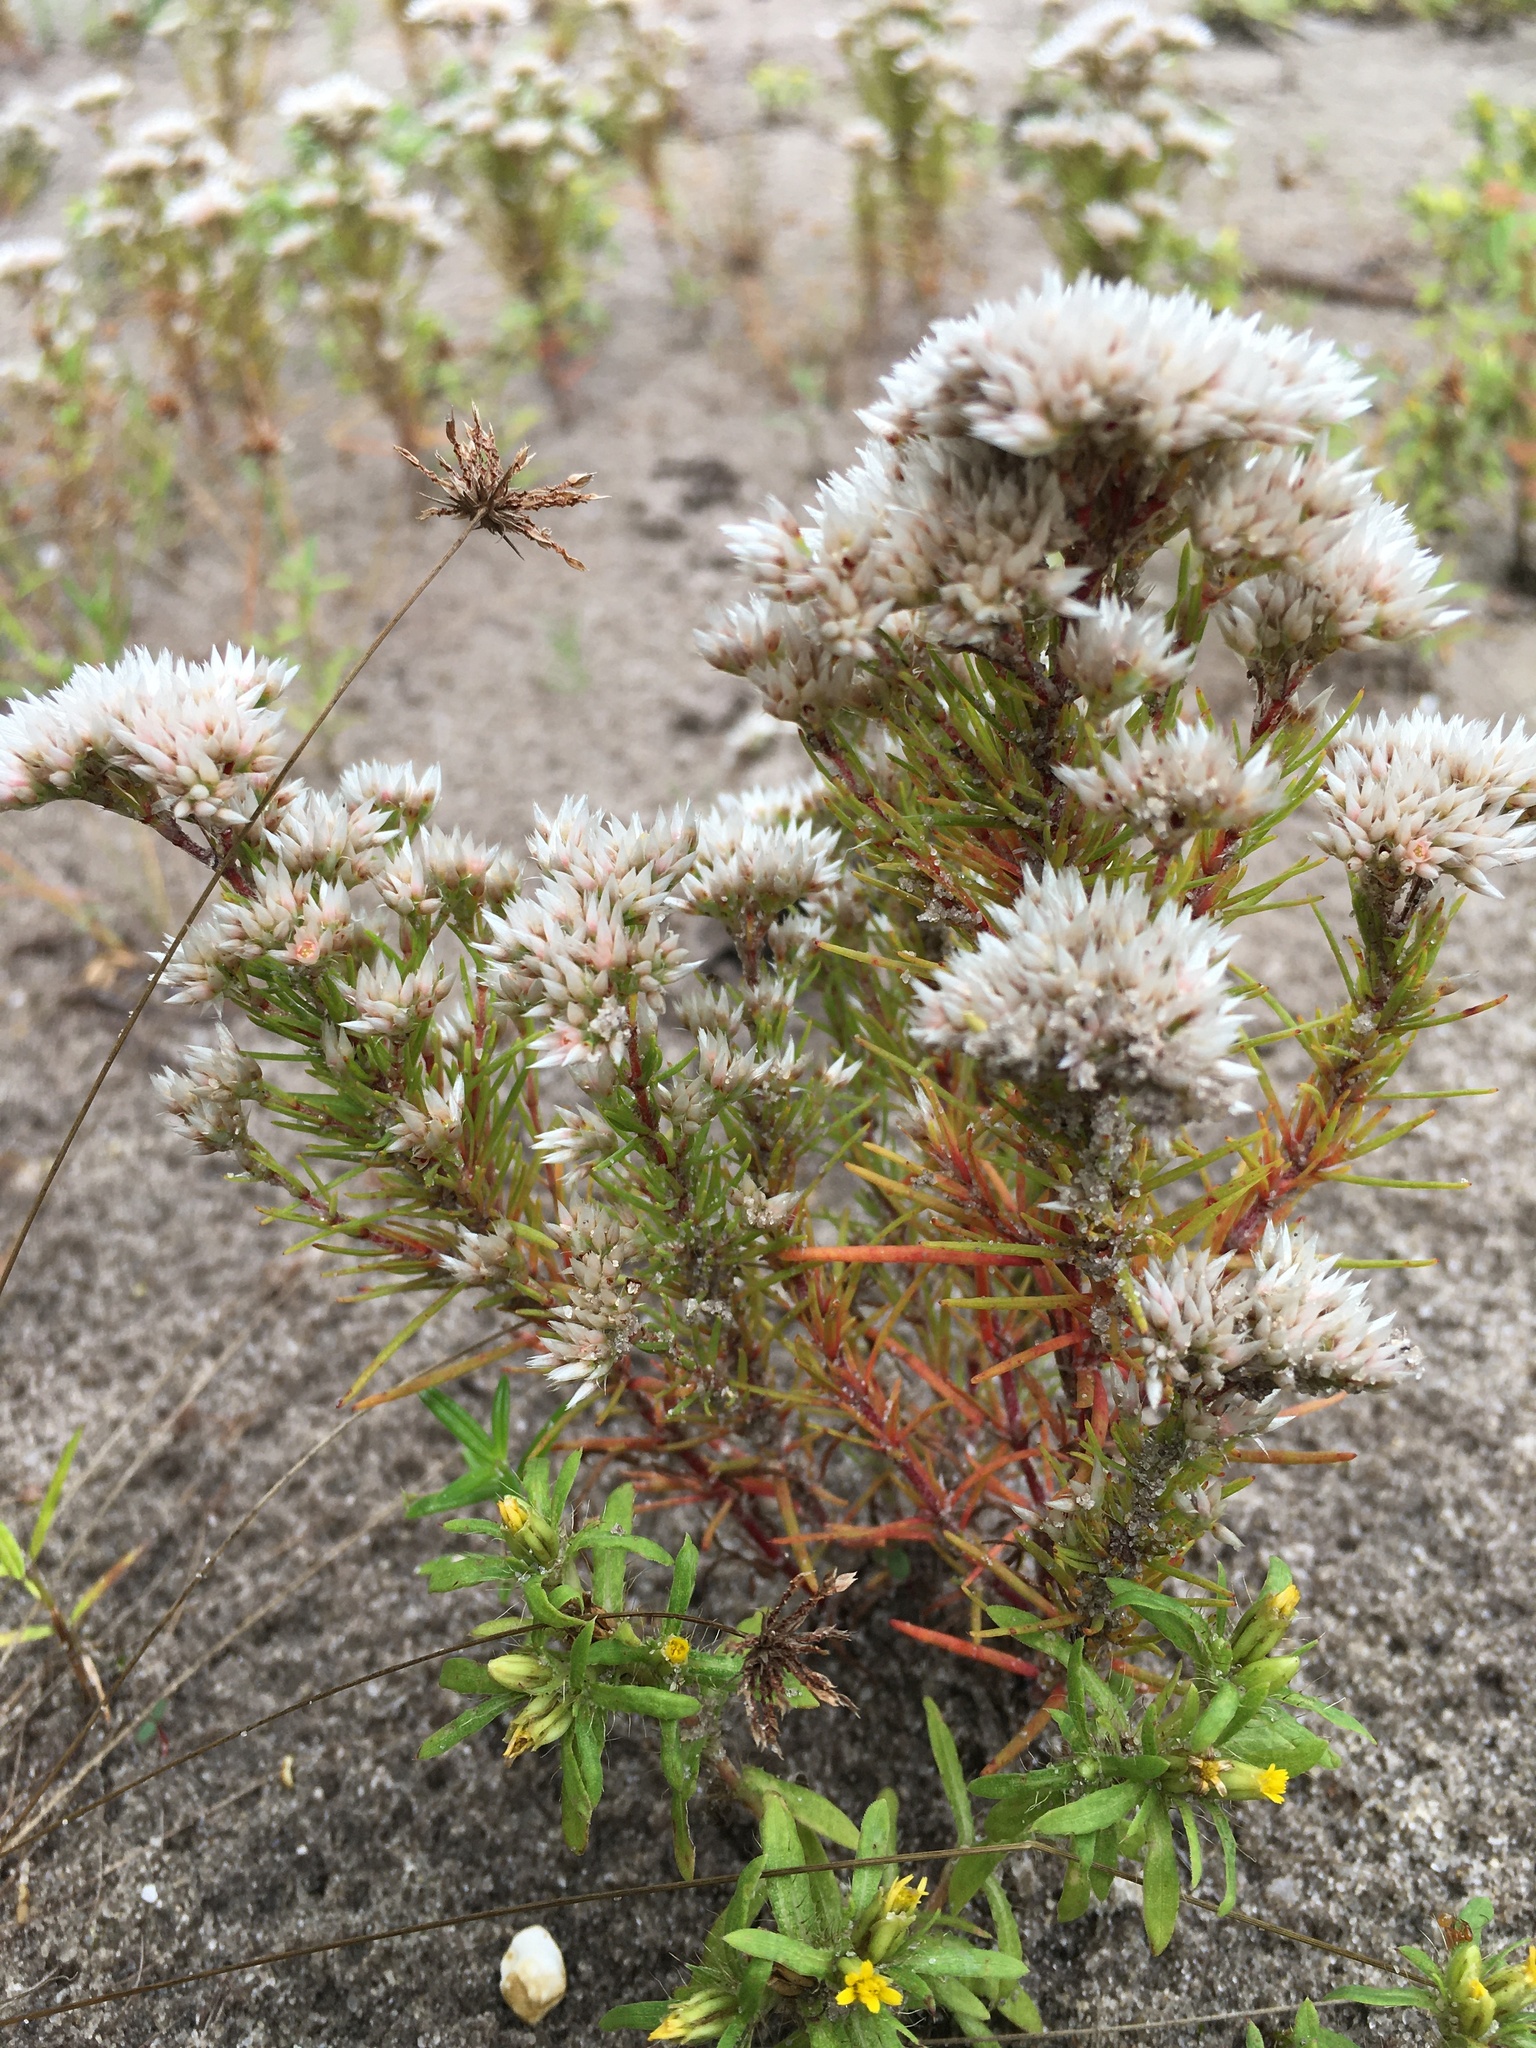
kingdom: Plantae
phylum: Tracheophyta
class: Magnoliopsida
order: Caryophyllales
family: Caryophyllaceae
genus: Polycarpaea
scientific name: Polycarpaea corymbosa
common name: Oldman's cap
